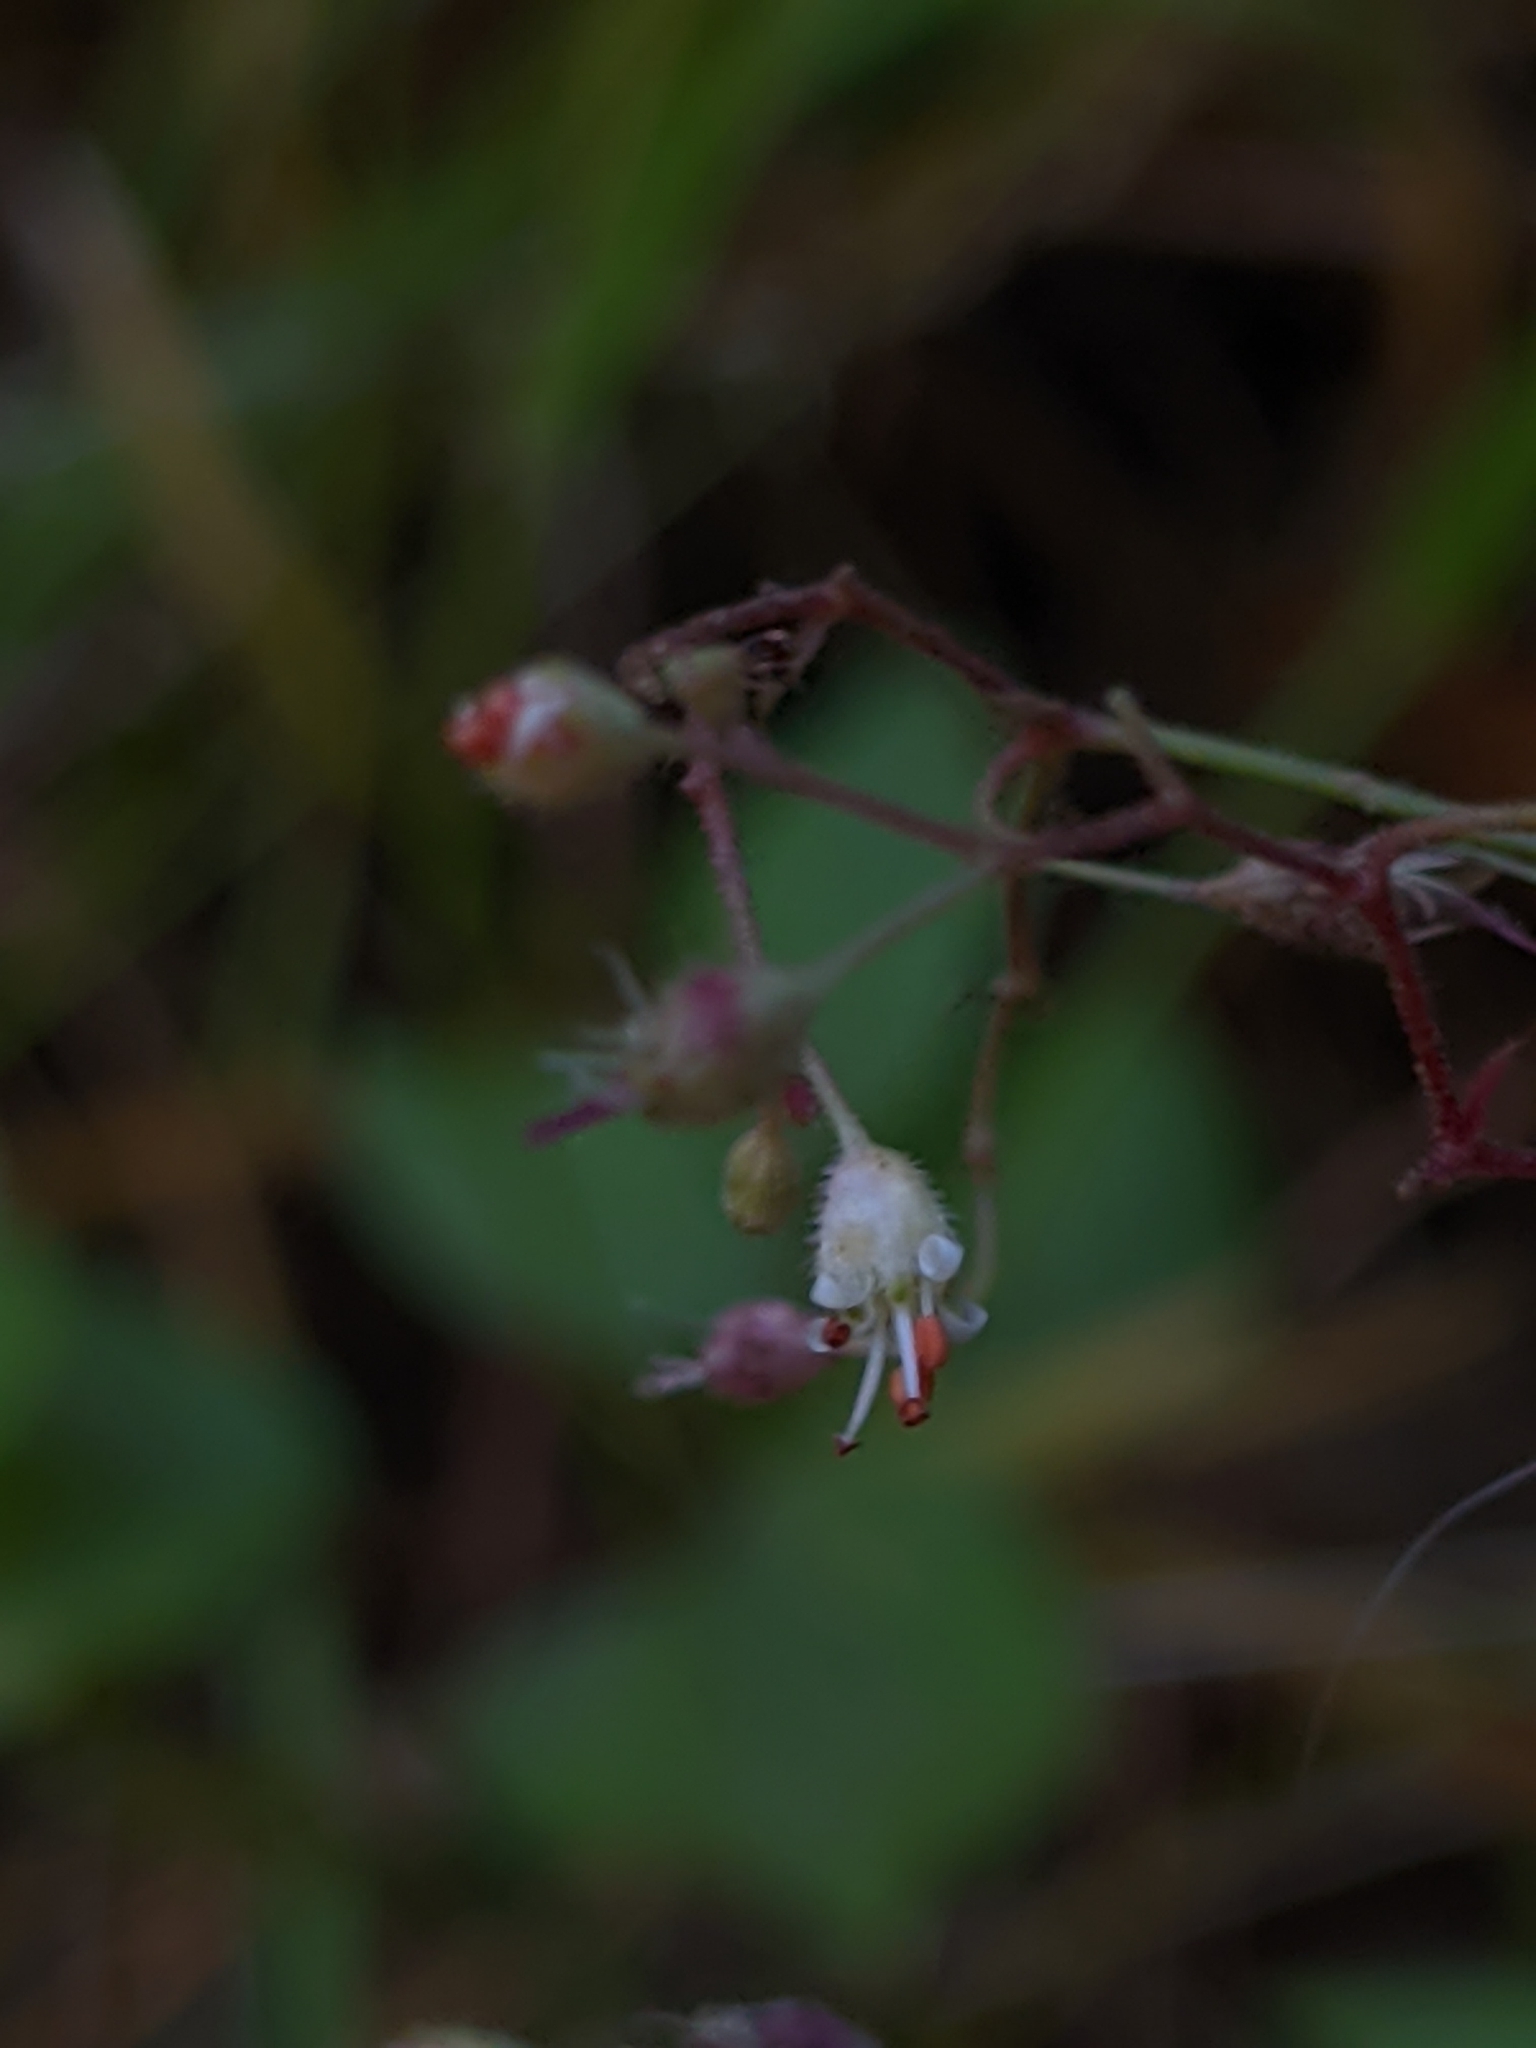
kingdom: Plantae
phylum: Tracheophyta
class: Magnoliopsida
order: Saxifragales
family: Saxifragaceae
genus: Heuchera
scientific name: Heuchera micrantha
